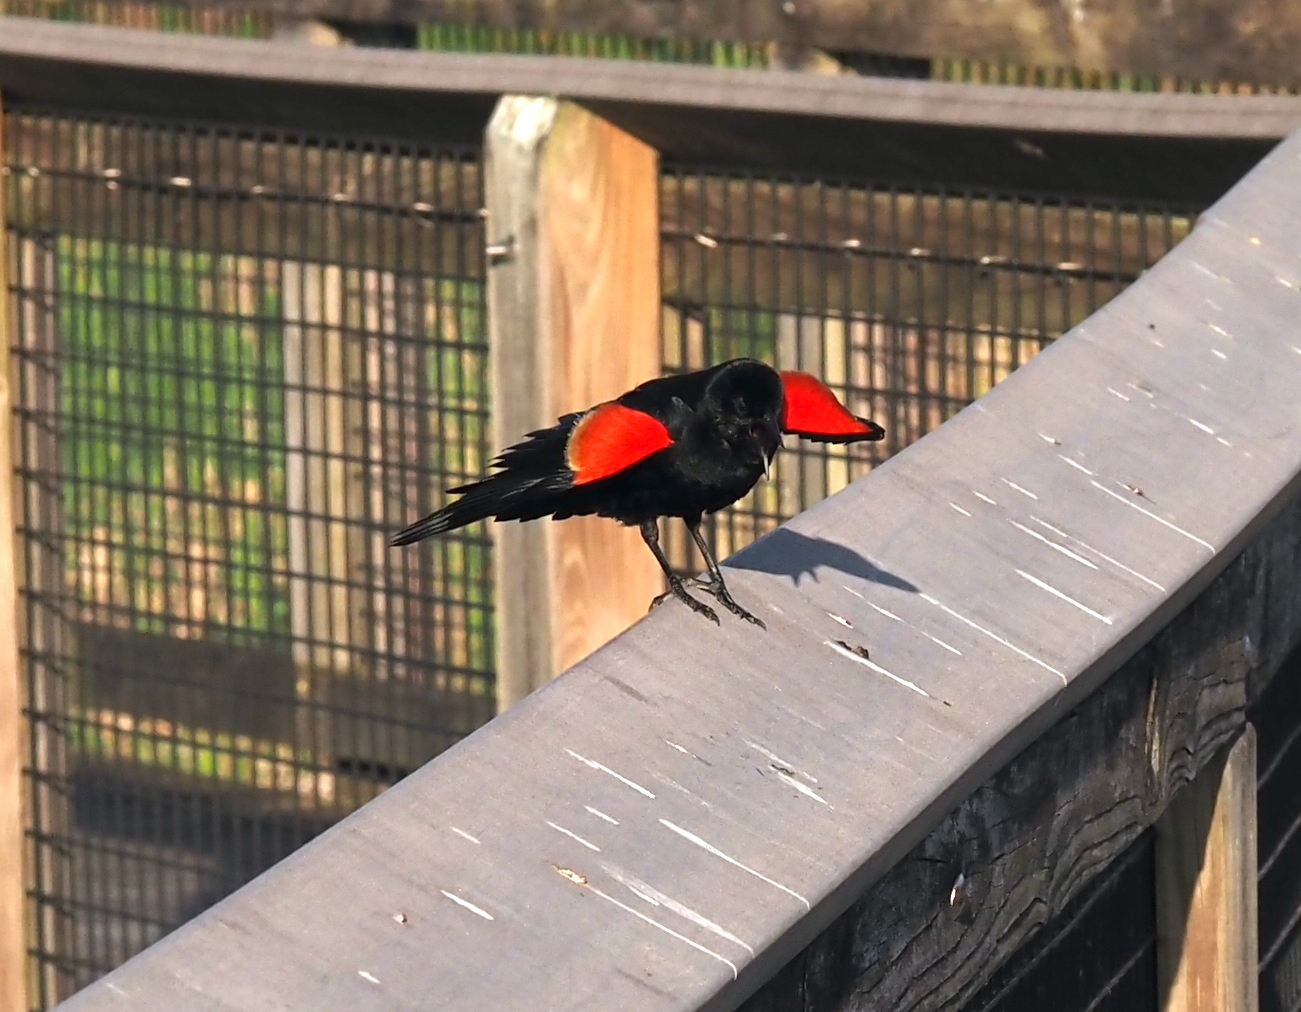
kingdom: Animalia
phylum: Chordata
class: Aves
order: Passeriformes
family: Icteridae
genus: Agelaius
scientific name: Agelaius phoeniceus
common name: Red-winged blackbird
